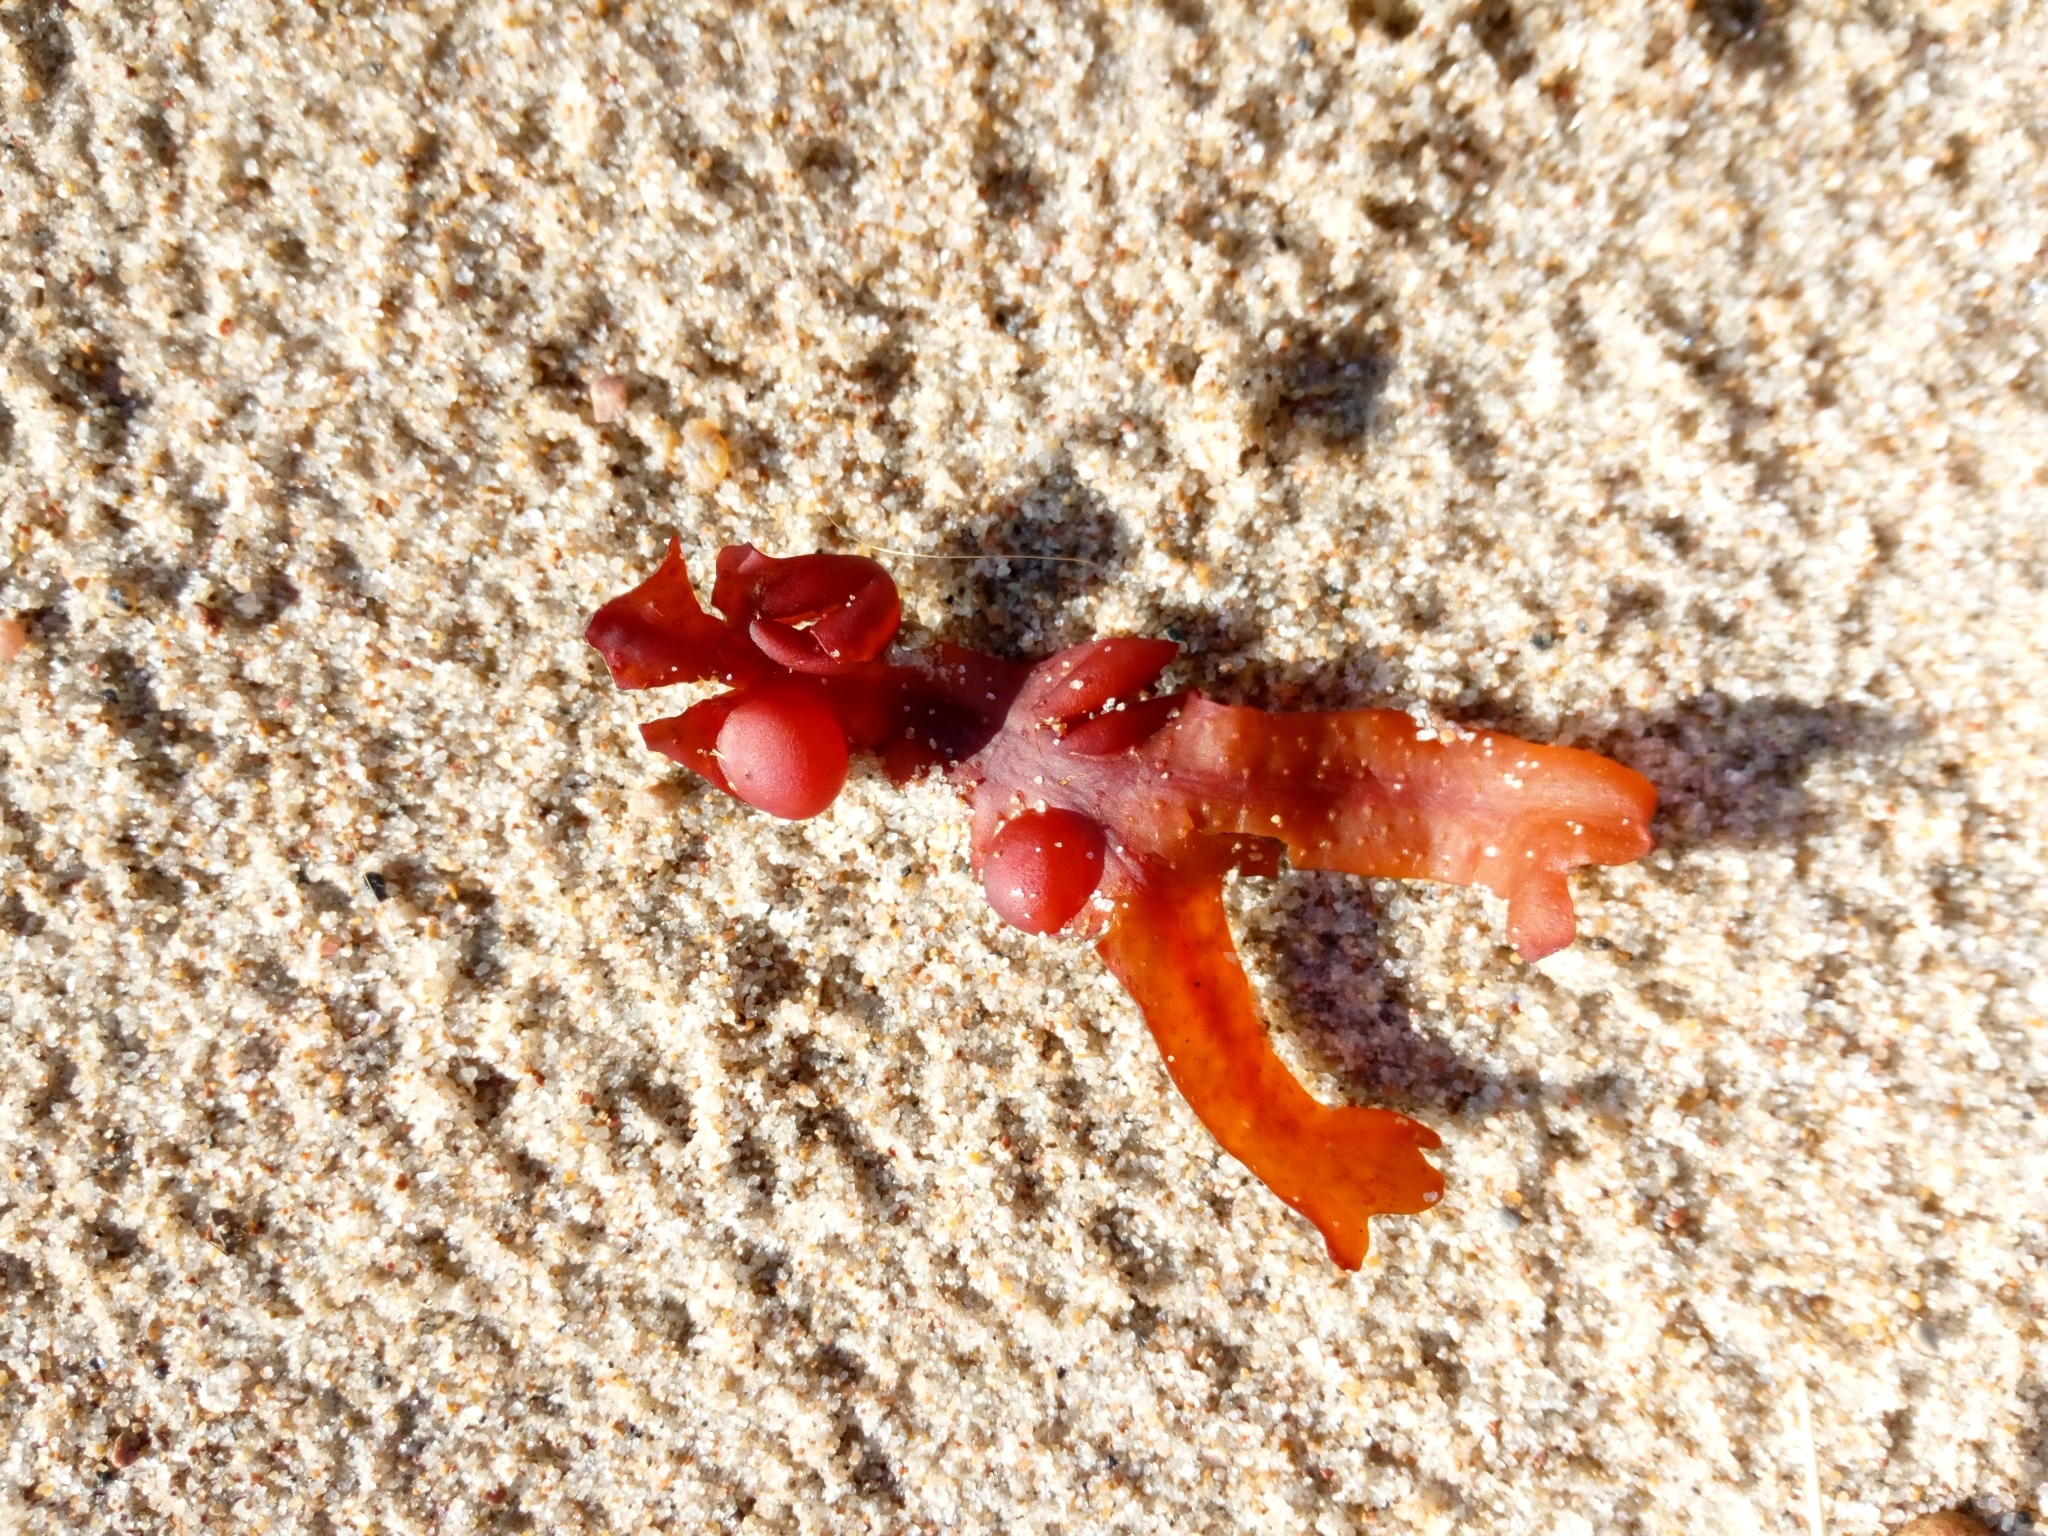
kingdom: Chromista
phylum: Ochrophyta
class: Phaeophyceae
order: Fucales
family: Fucaceae
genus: Fucus
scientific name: Fucus vesiculosus
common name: Bladder wrack
